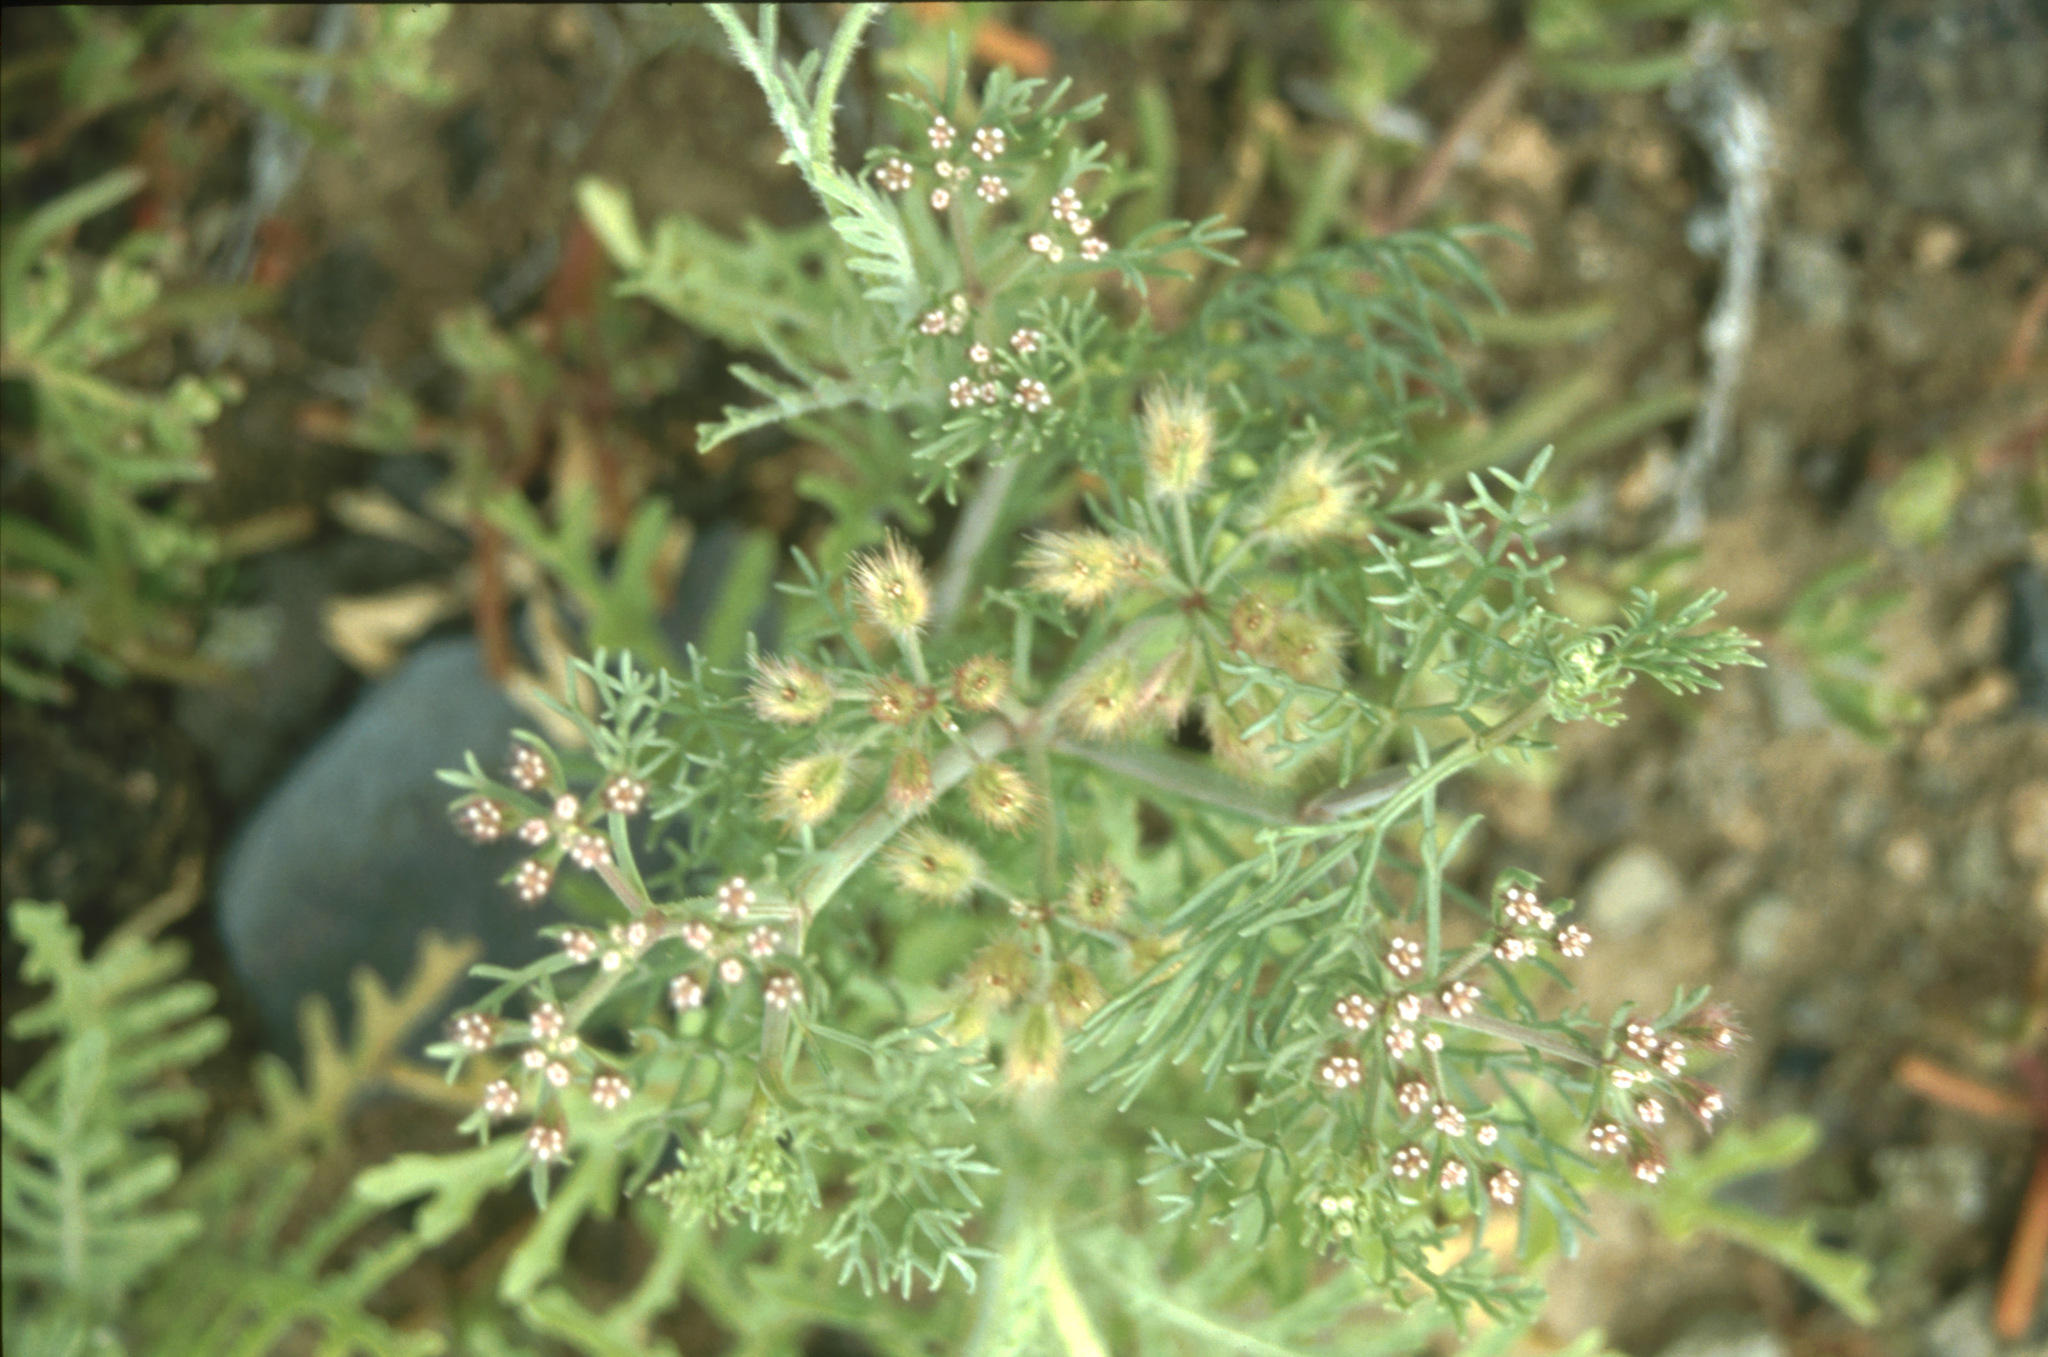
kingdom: Plantae
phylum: Tracheophyta
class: Magnoliopsida
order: Apiales
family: Apiaceae
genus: Ammodaucus
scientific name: Ammodaucus leucotrichus
